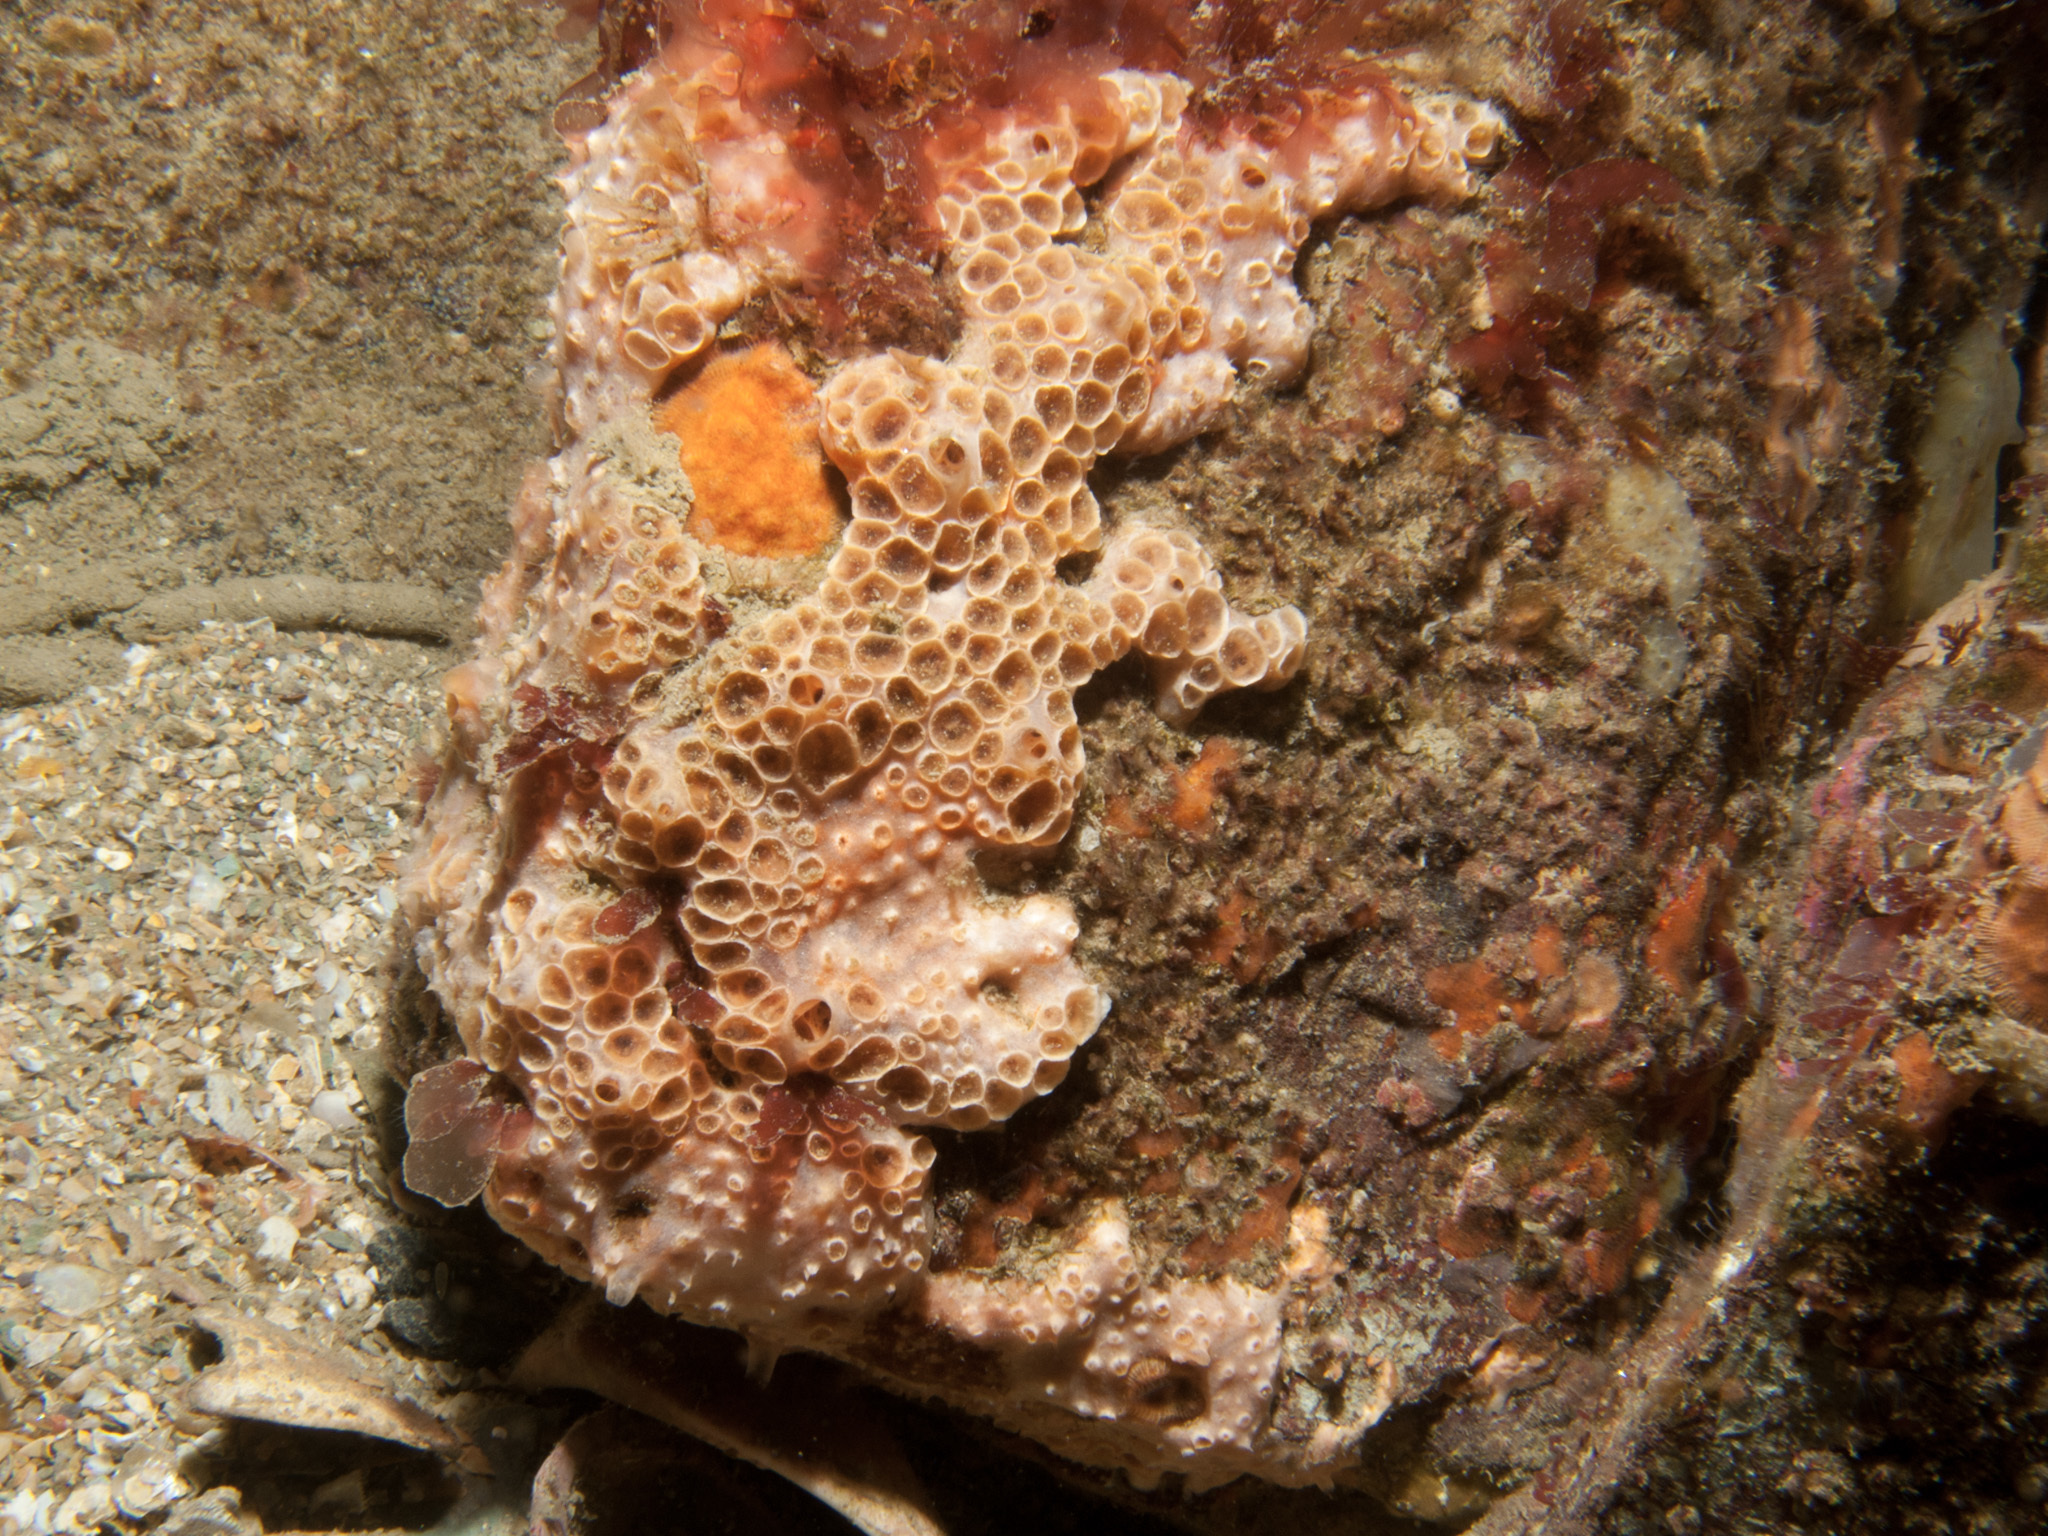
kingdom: Animalia
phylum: Porifera
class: Demospongiae
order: Poecilosclerida
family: Hymedesmiidae
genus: Hemimycale
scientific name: Hemimycale columella
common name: Crater sponge
